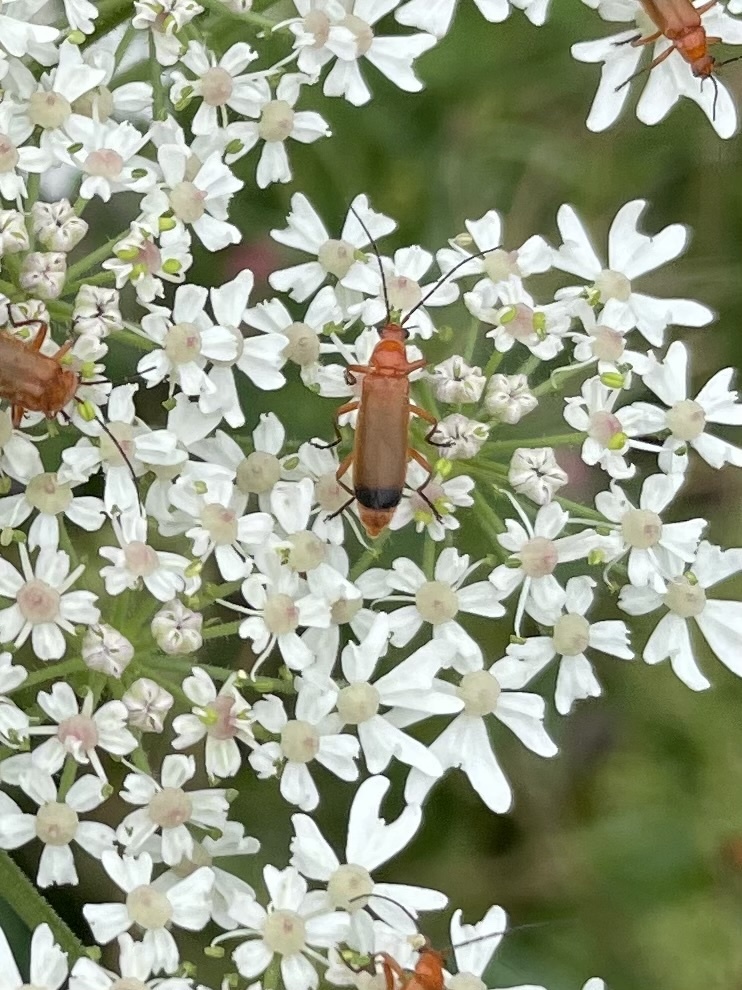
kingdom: Animalia
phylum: Arthropoda
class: Insecta
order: Coleoptera
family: Cantharidae
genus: Rhagonycha
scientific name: Rhagonycha fulva
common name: Common red soldier beetle
